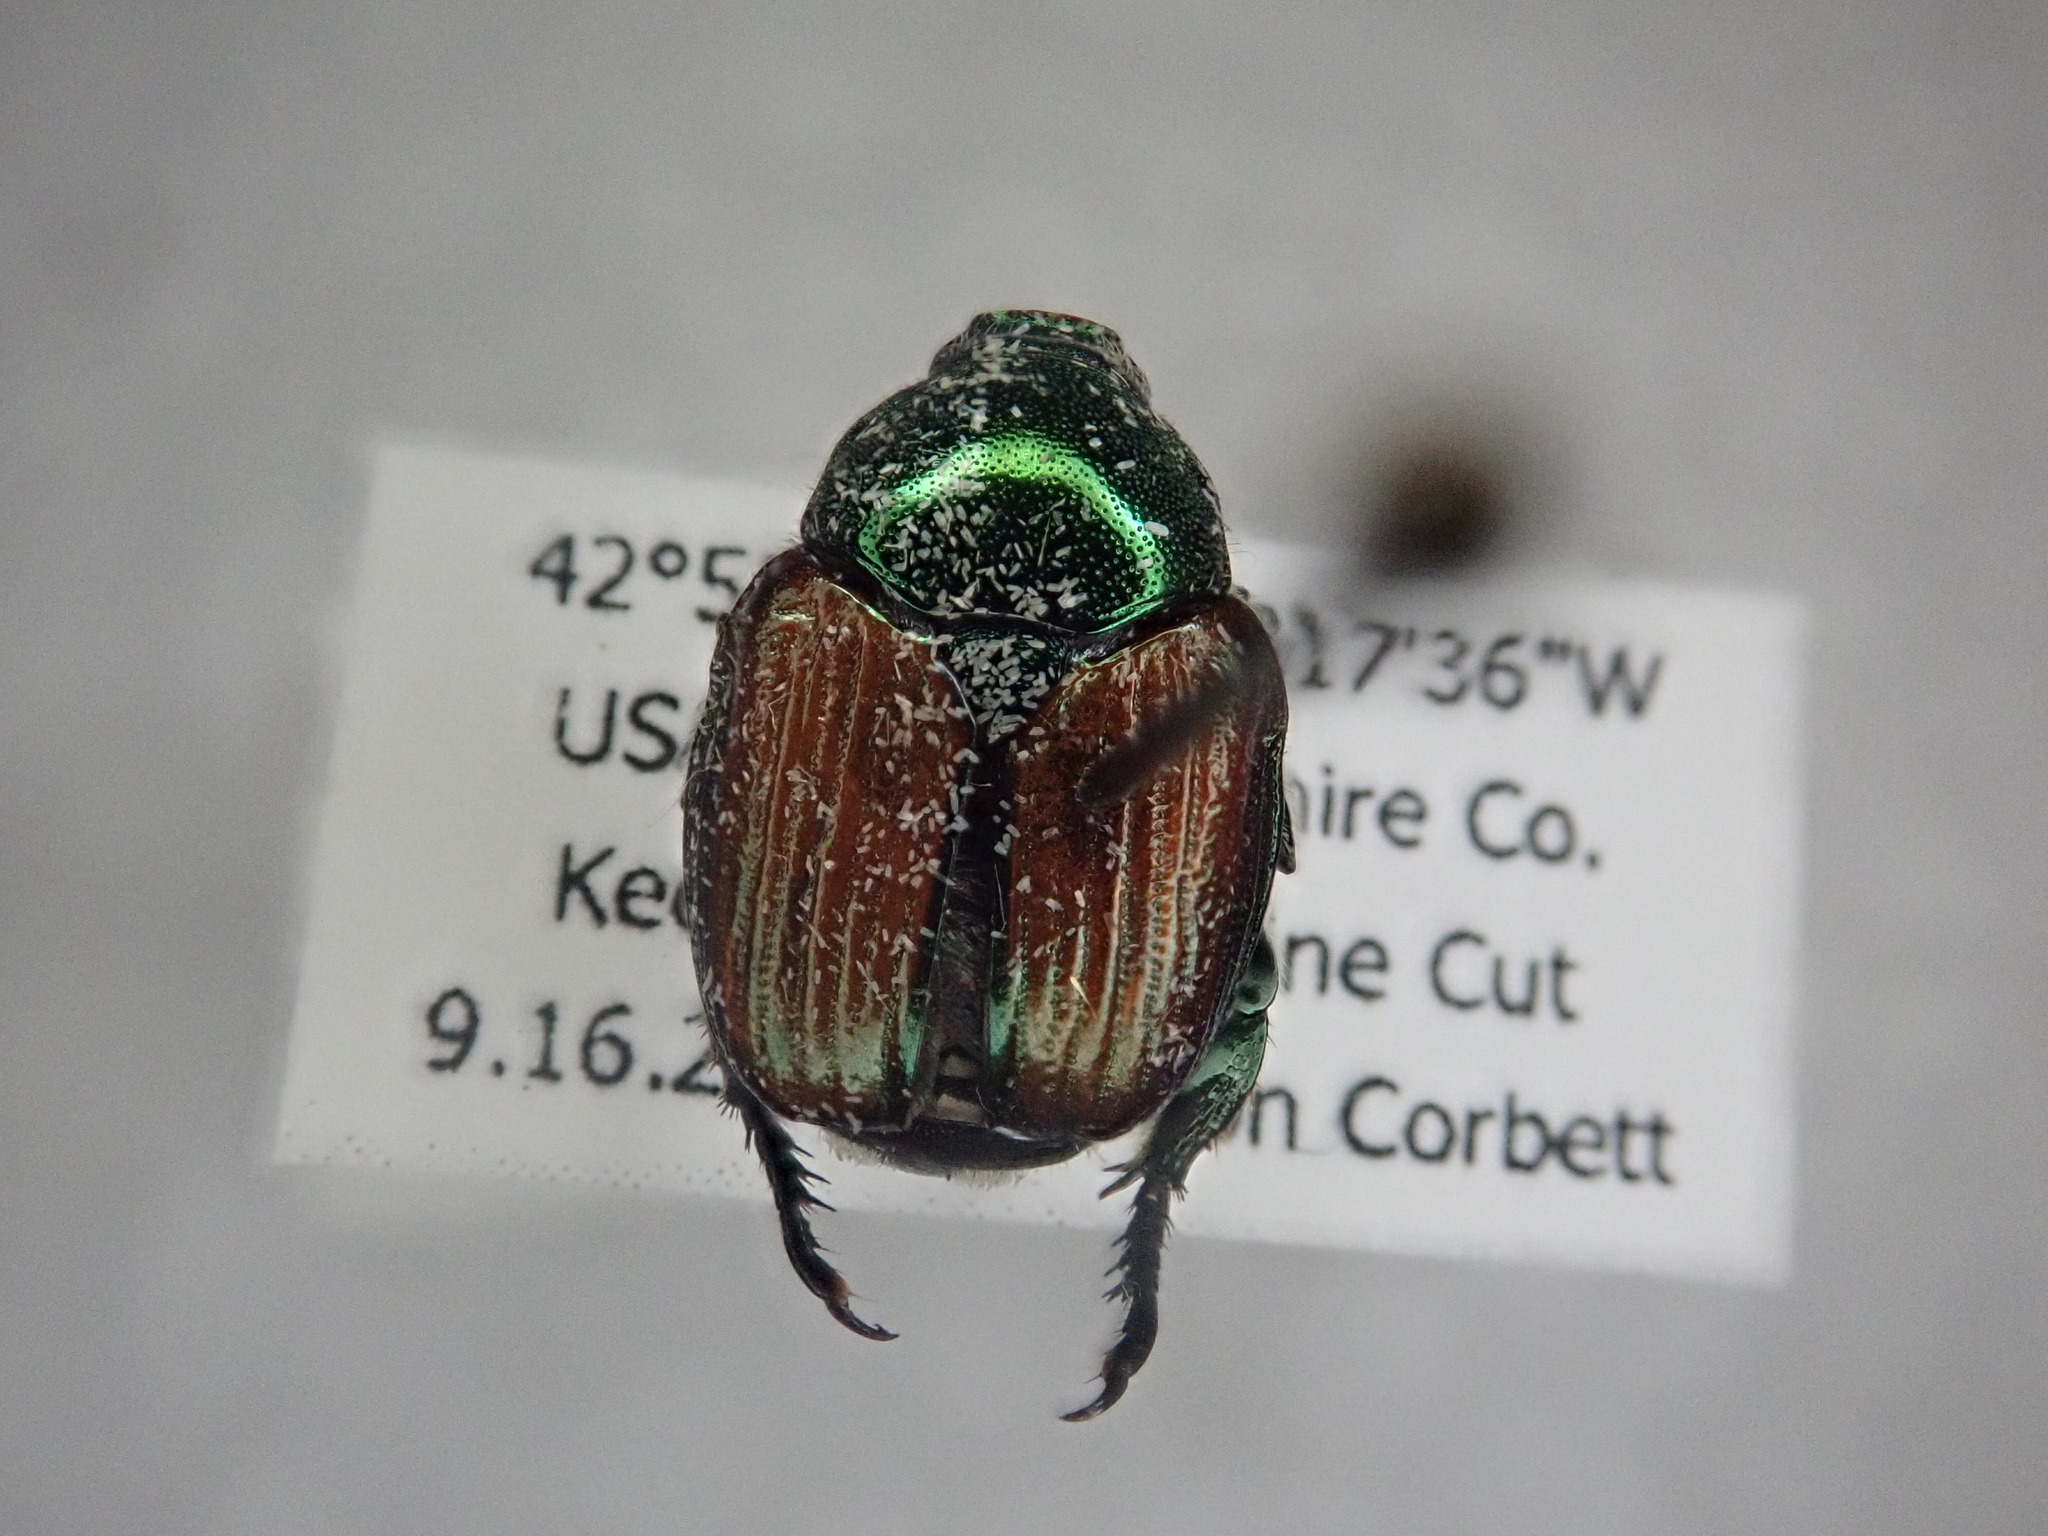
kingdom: Animalia
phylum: Arthropoda
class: Insecta
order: Coleoptera
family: Scarabaeidae
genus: Popillia
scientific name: Popillia japonica
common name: Japanese beetle
